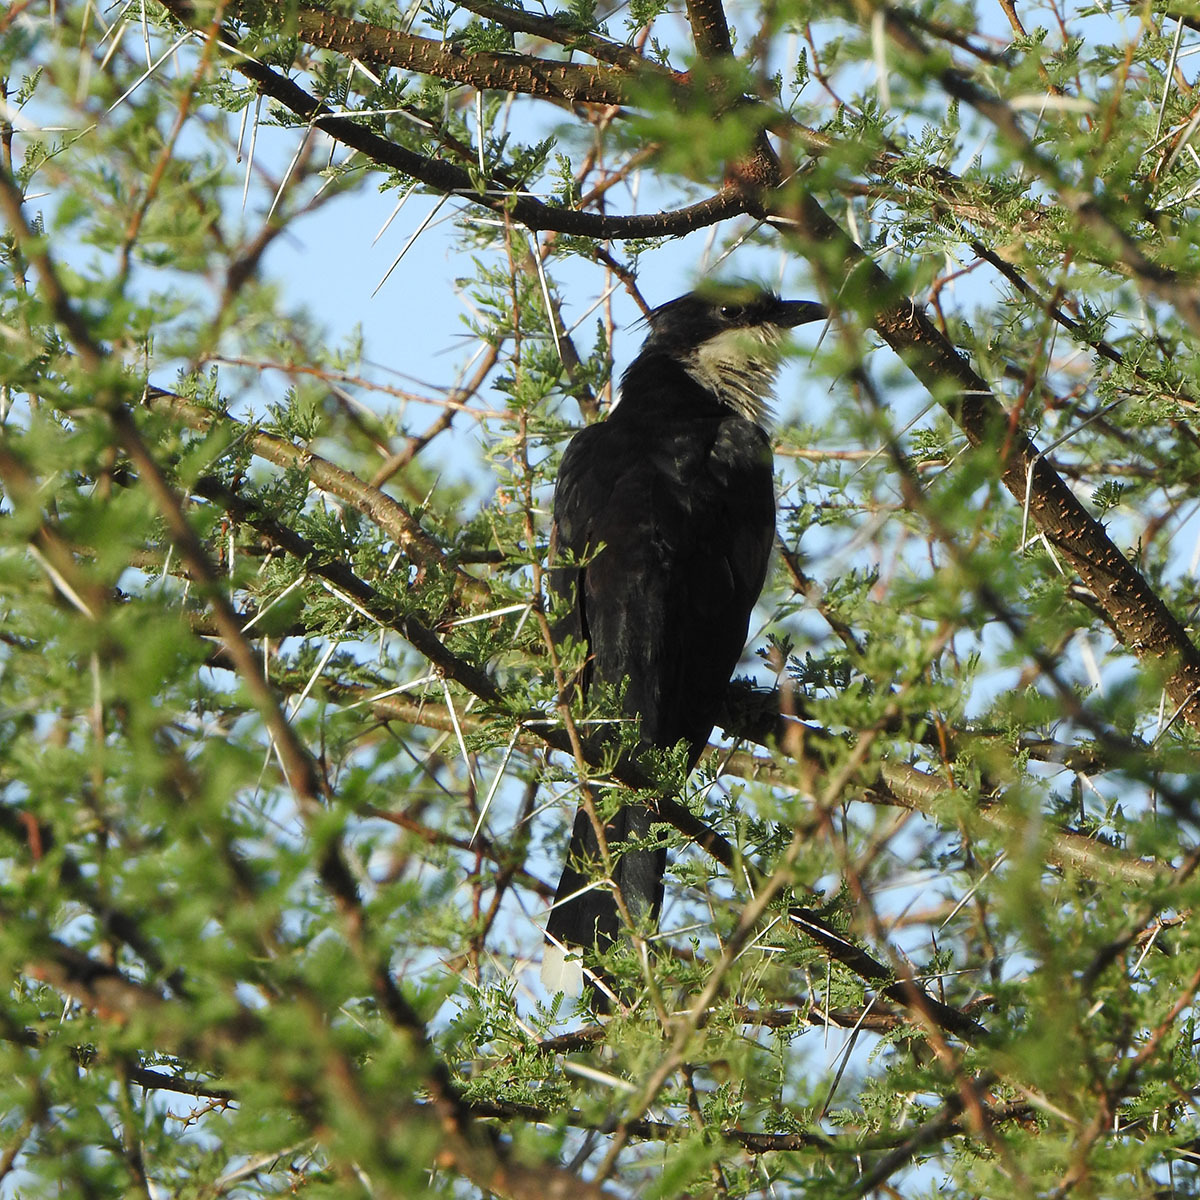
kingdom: Animalia
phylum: Chordata
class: Aves
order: Cuculiformes
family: Cuculidae
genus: Clamator
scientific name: Clamator jacobinus
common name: Jacobin cuckoo
